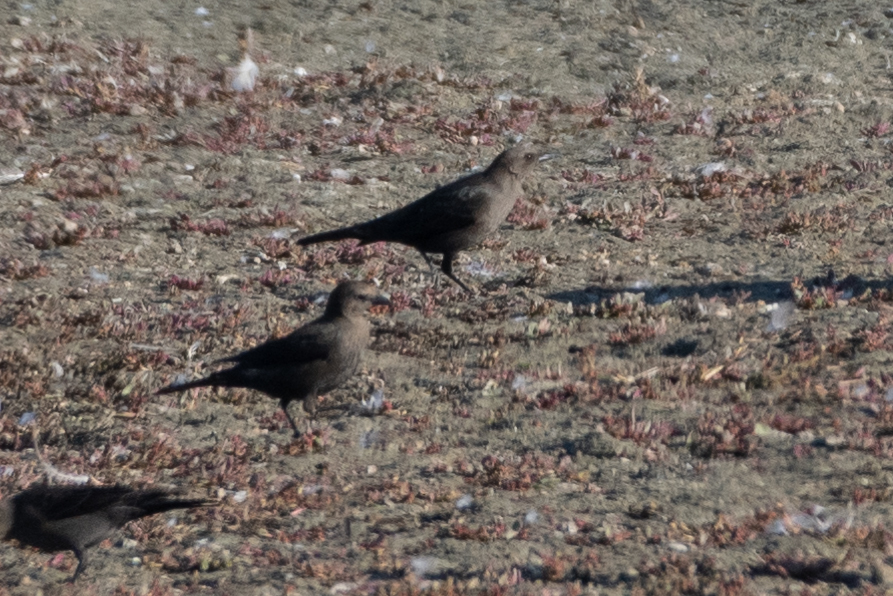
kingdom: Animalia
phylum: Chordata
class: Aves
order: Passeriformes
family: Icteridae
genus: Euphagus
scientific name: Euphagus cyanocephalus
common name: Brewer's blackbird
